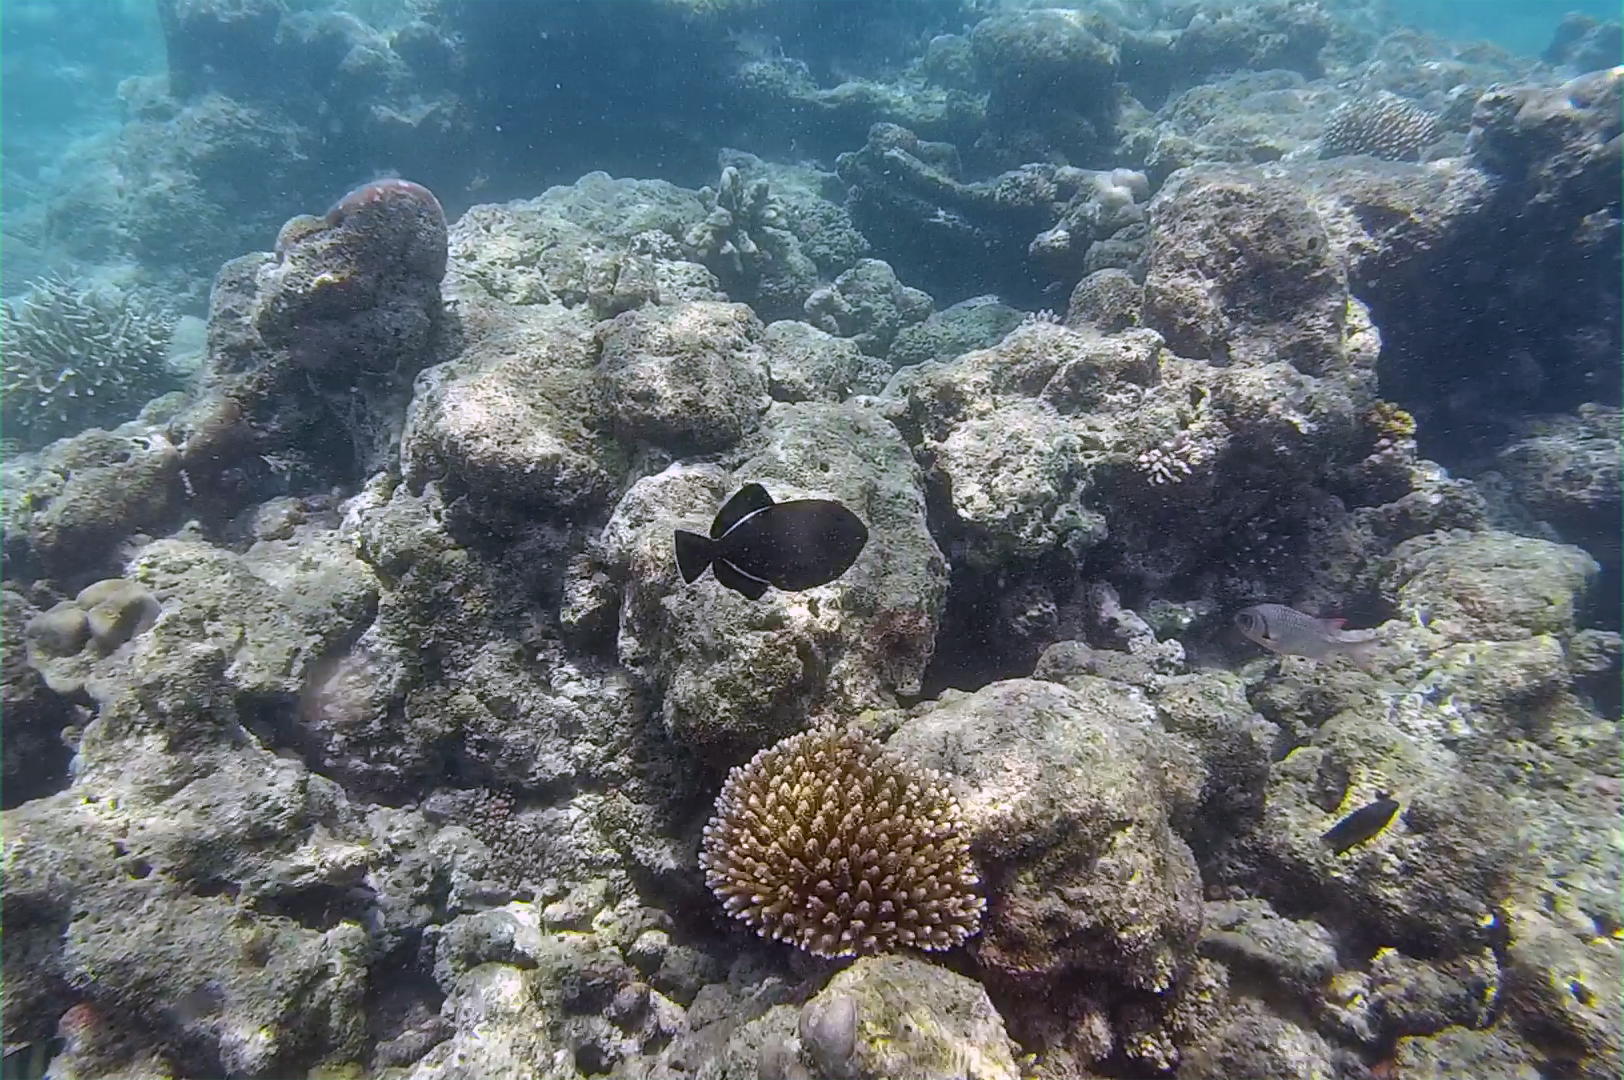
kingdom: Animalia
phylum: Chordata
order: Tetraodontiformes
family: Balistidae
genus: Melichthys
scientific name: Melichthys indicus
